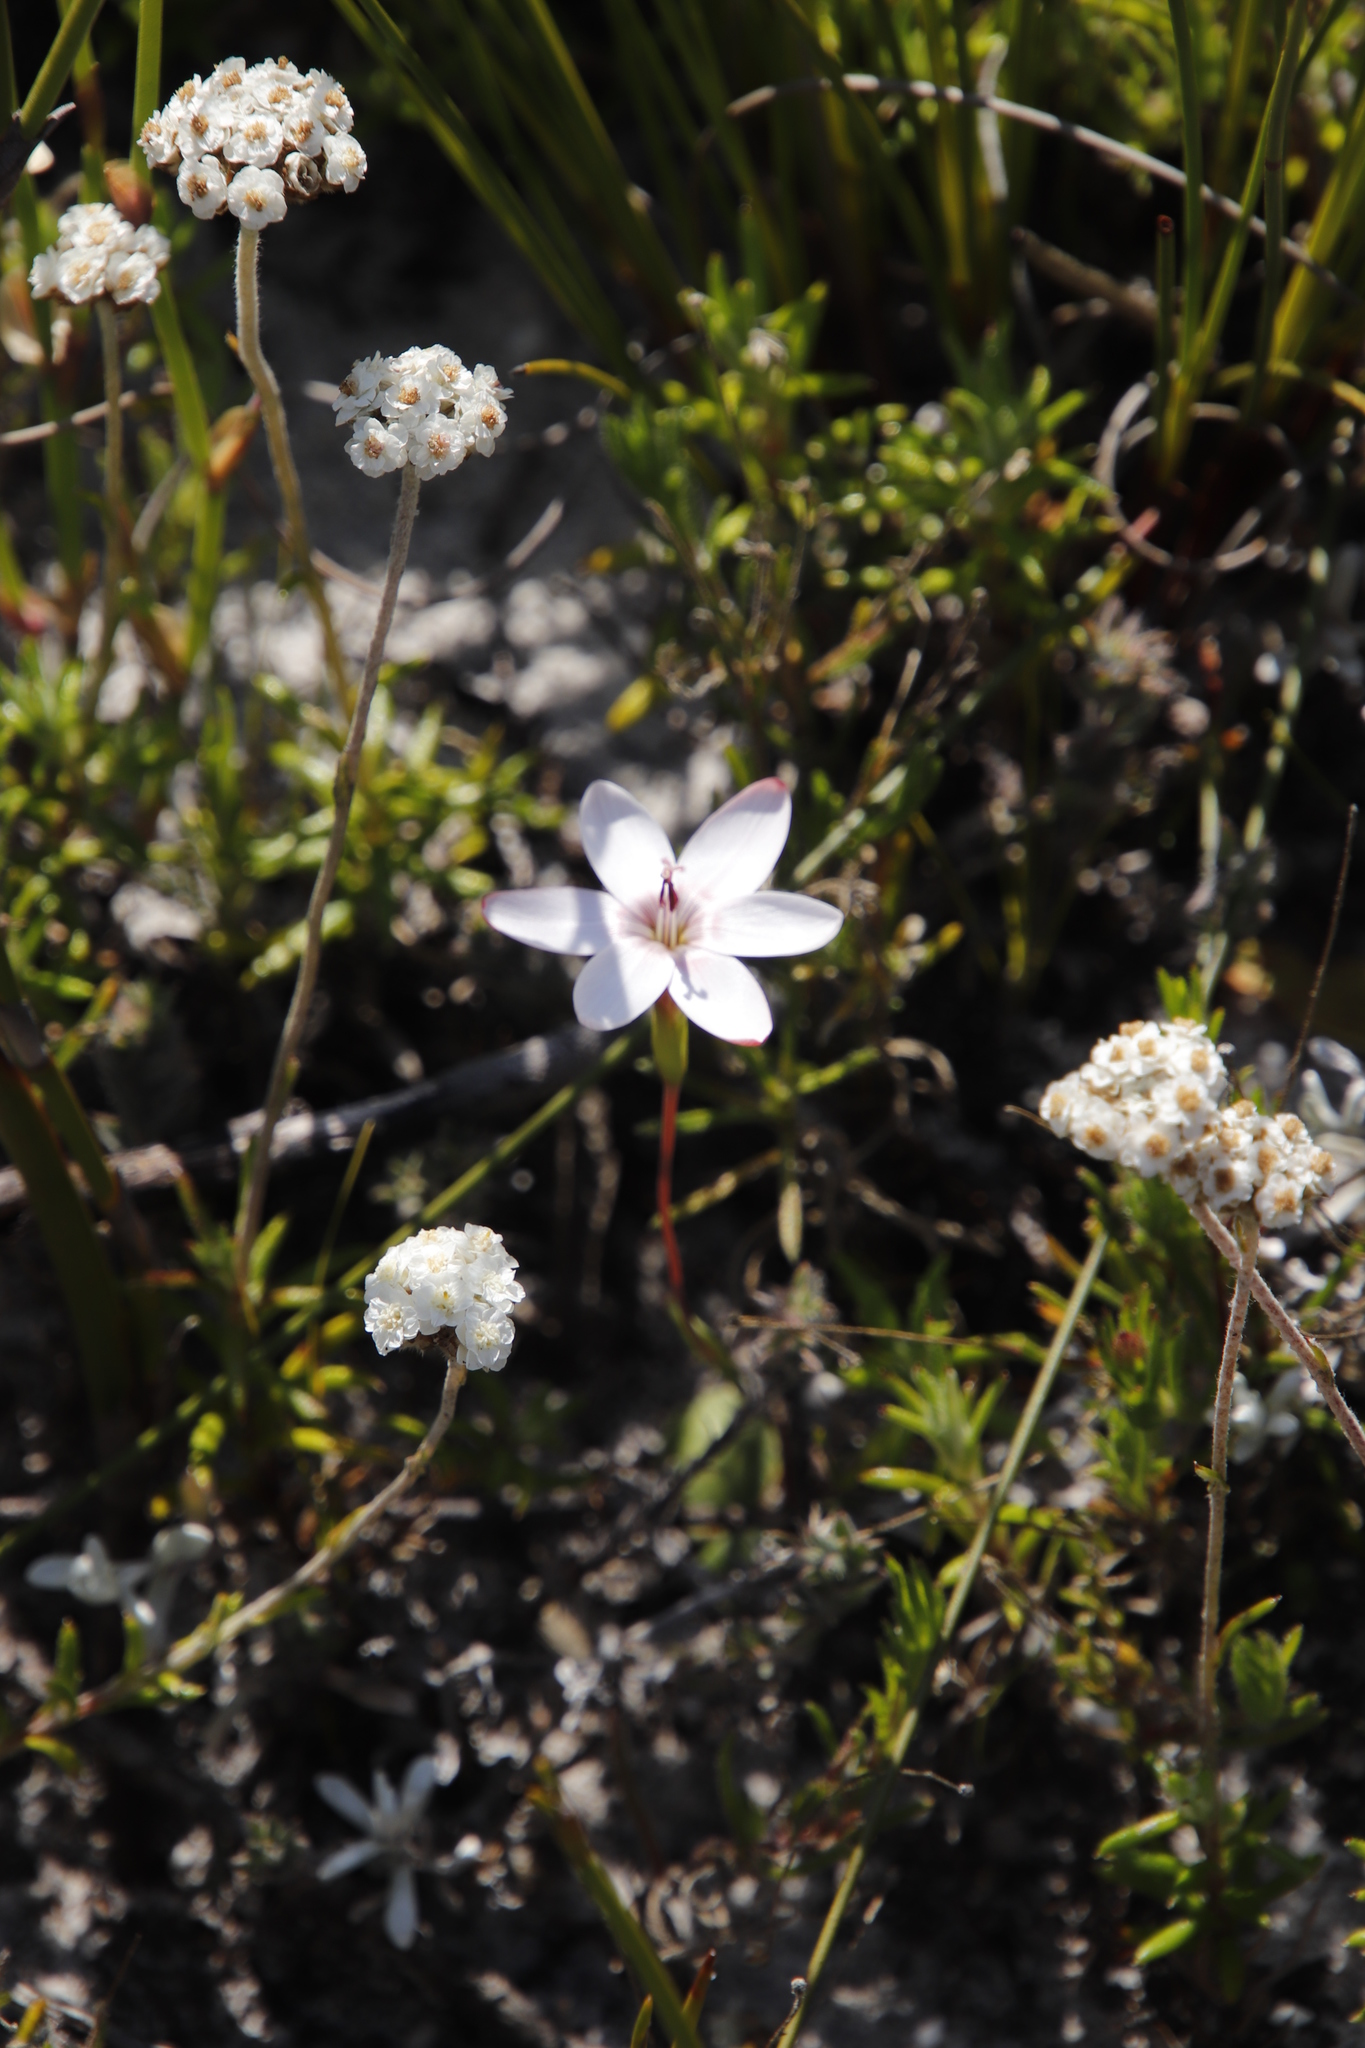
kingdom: Plantae
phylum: Tracheophyta
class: Liliopsida
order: Asparagales
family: Iridaceae
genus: Geissorhiza
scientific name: Geissorhiza ovata
